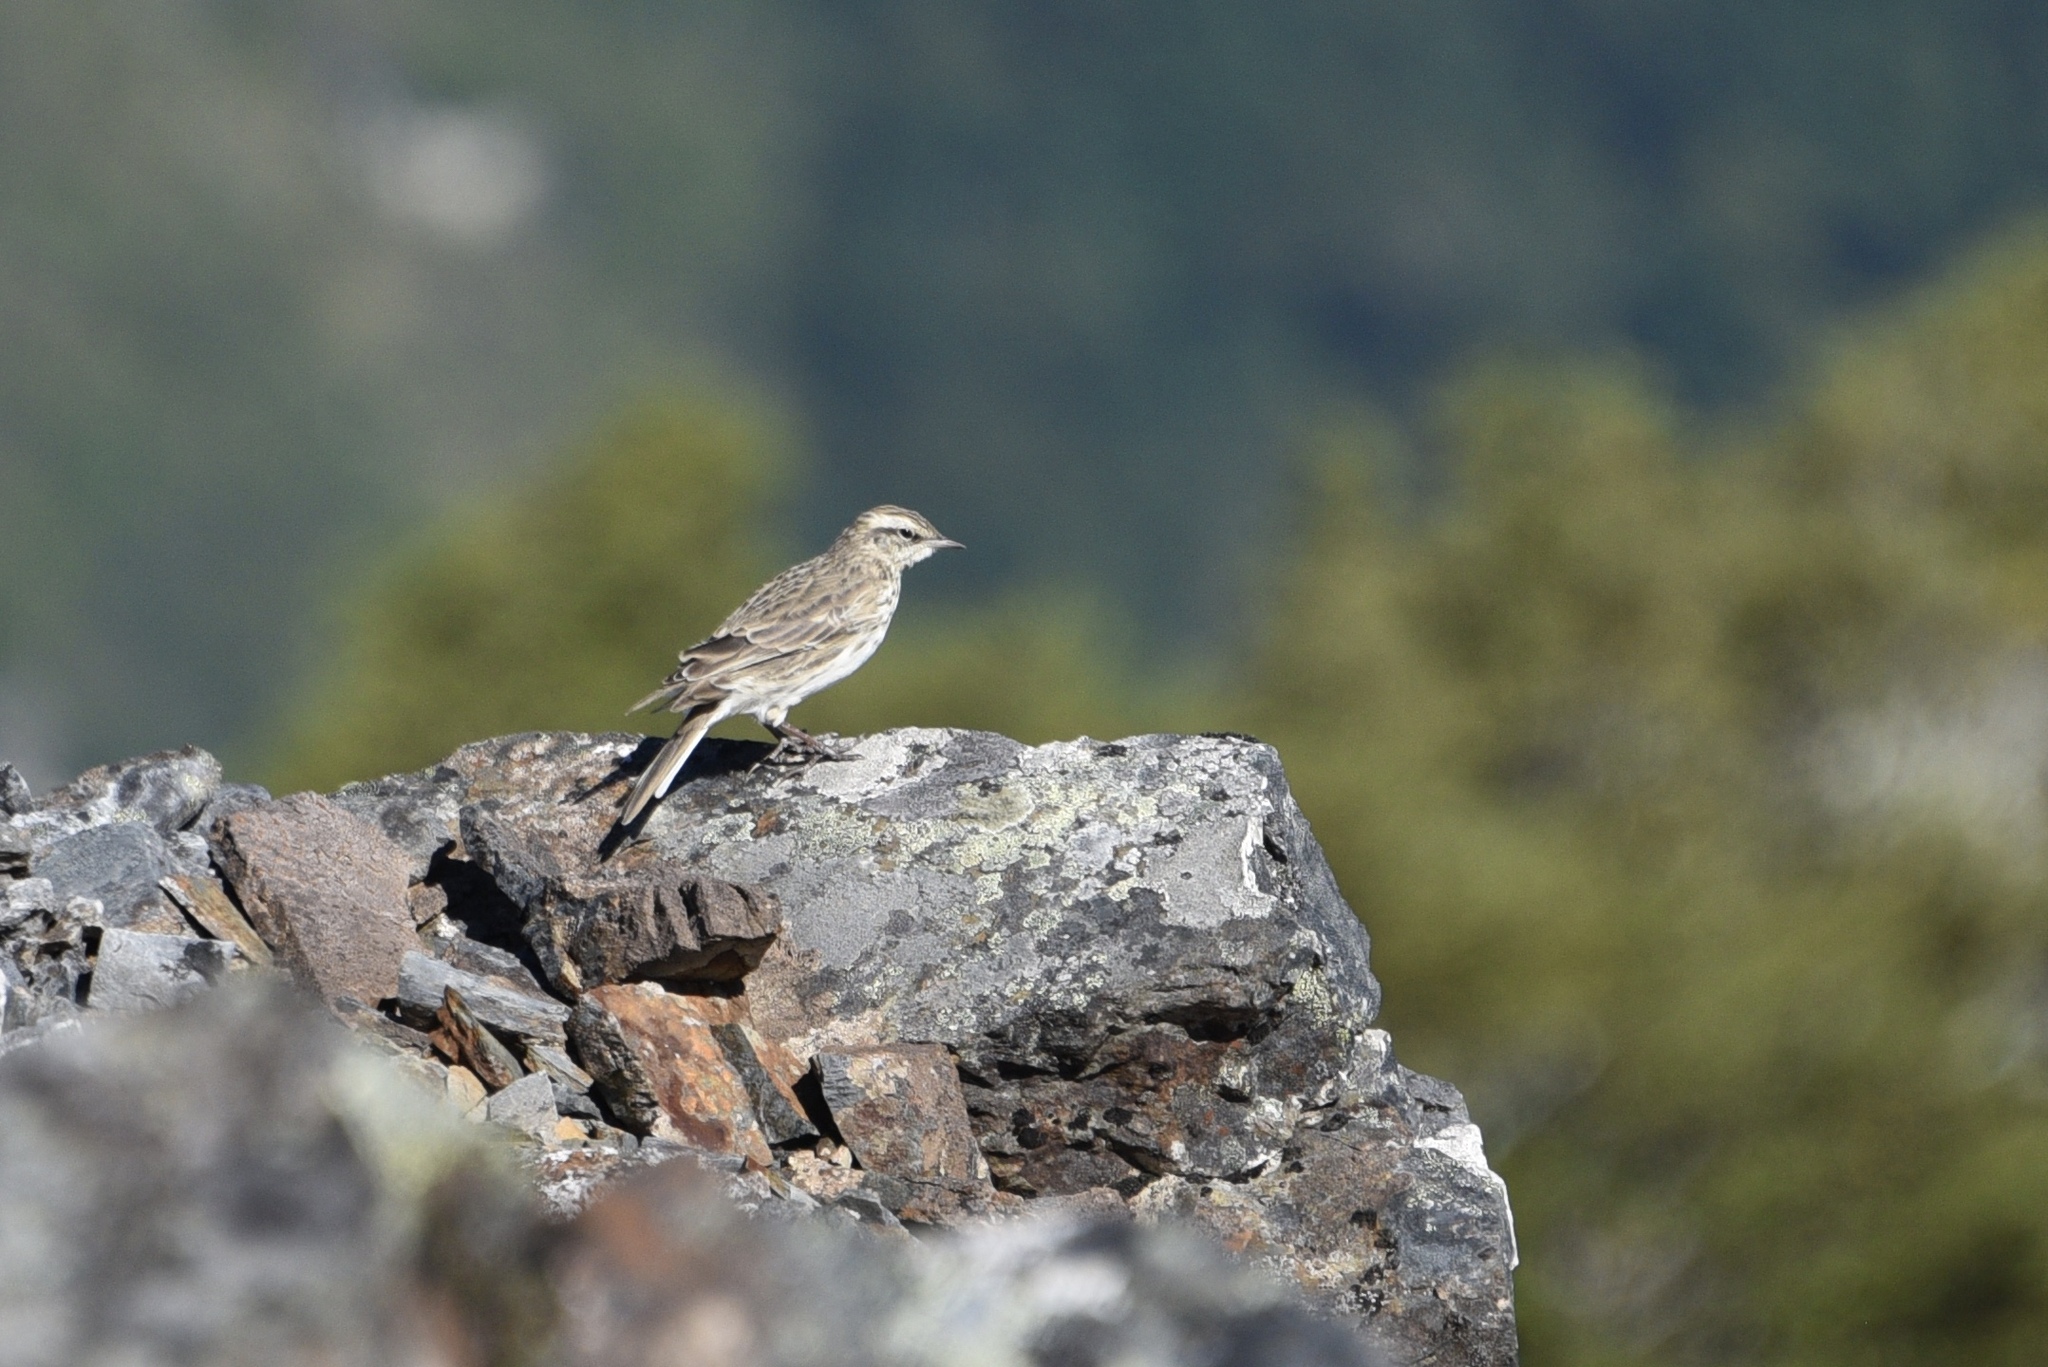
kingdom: Animalia
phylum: Chordata
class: Aves
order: Passeriformes
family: Motacillidae
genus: Anthus
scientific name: Anthus novaeseelandiae
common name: New zealand pipit
